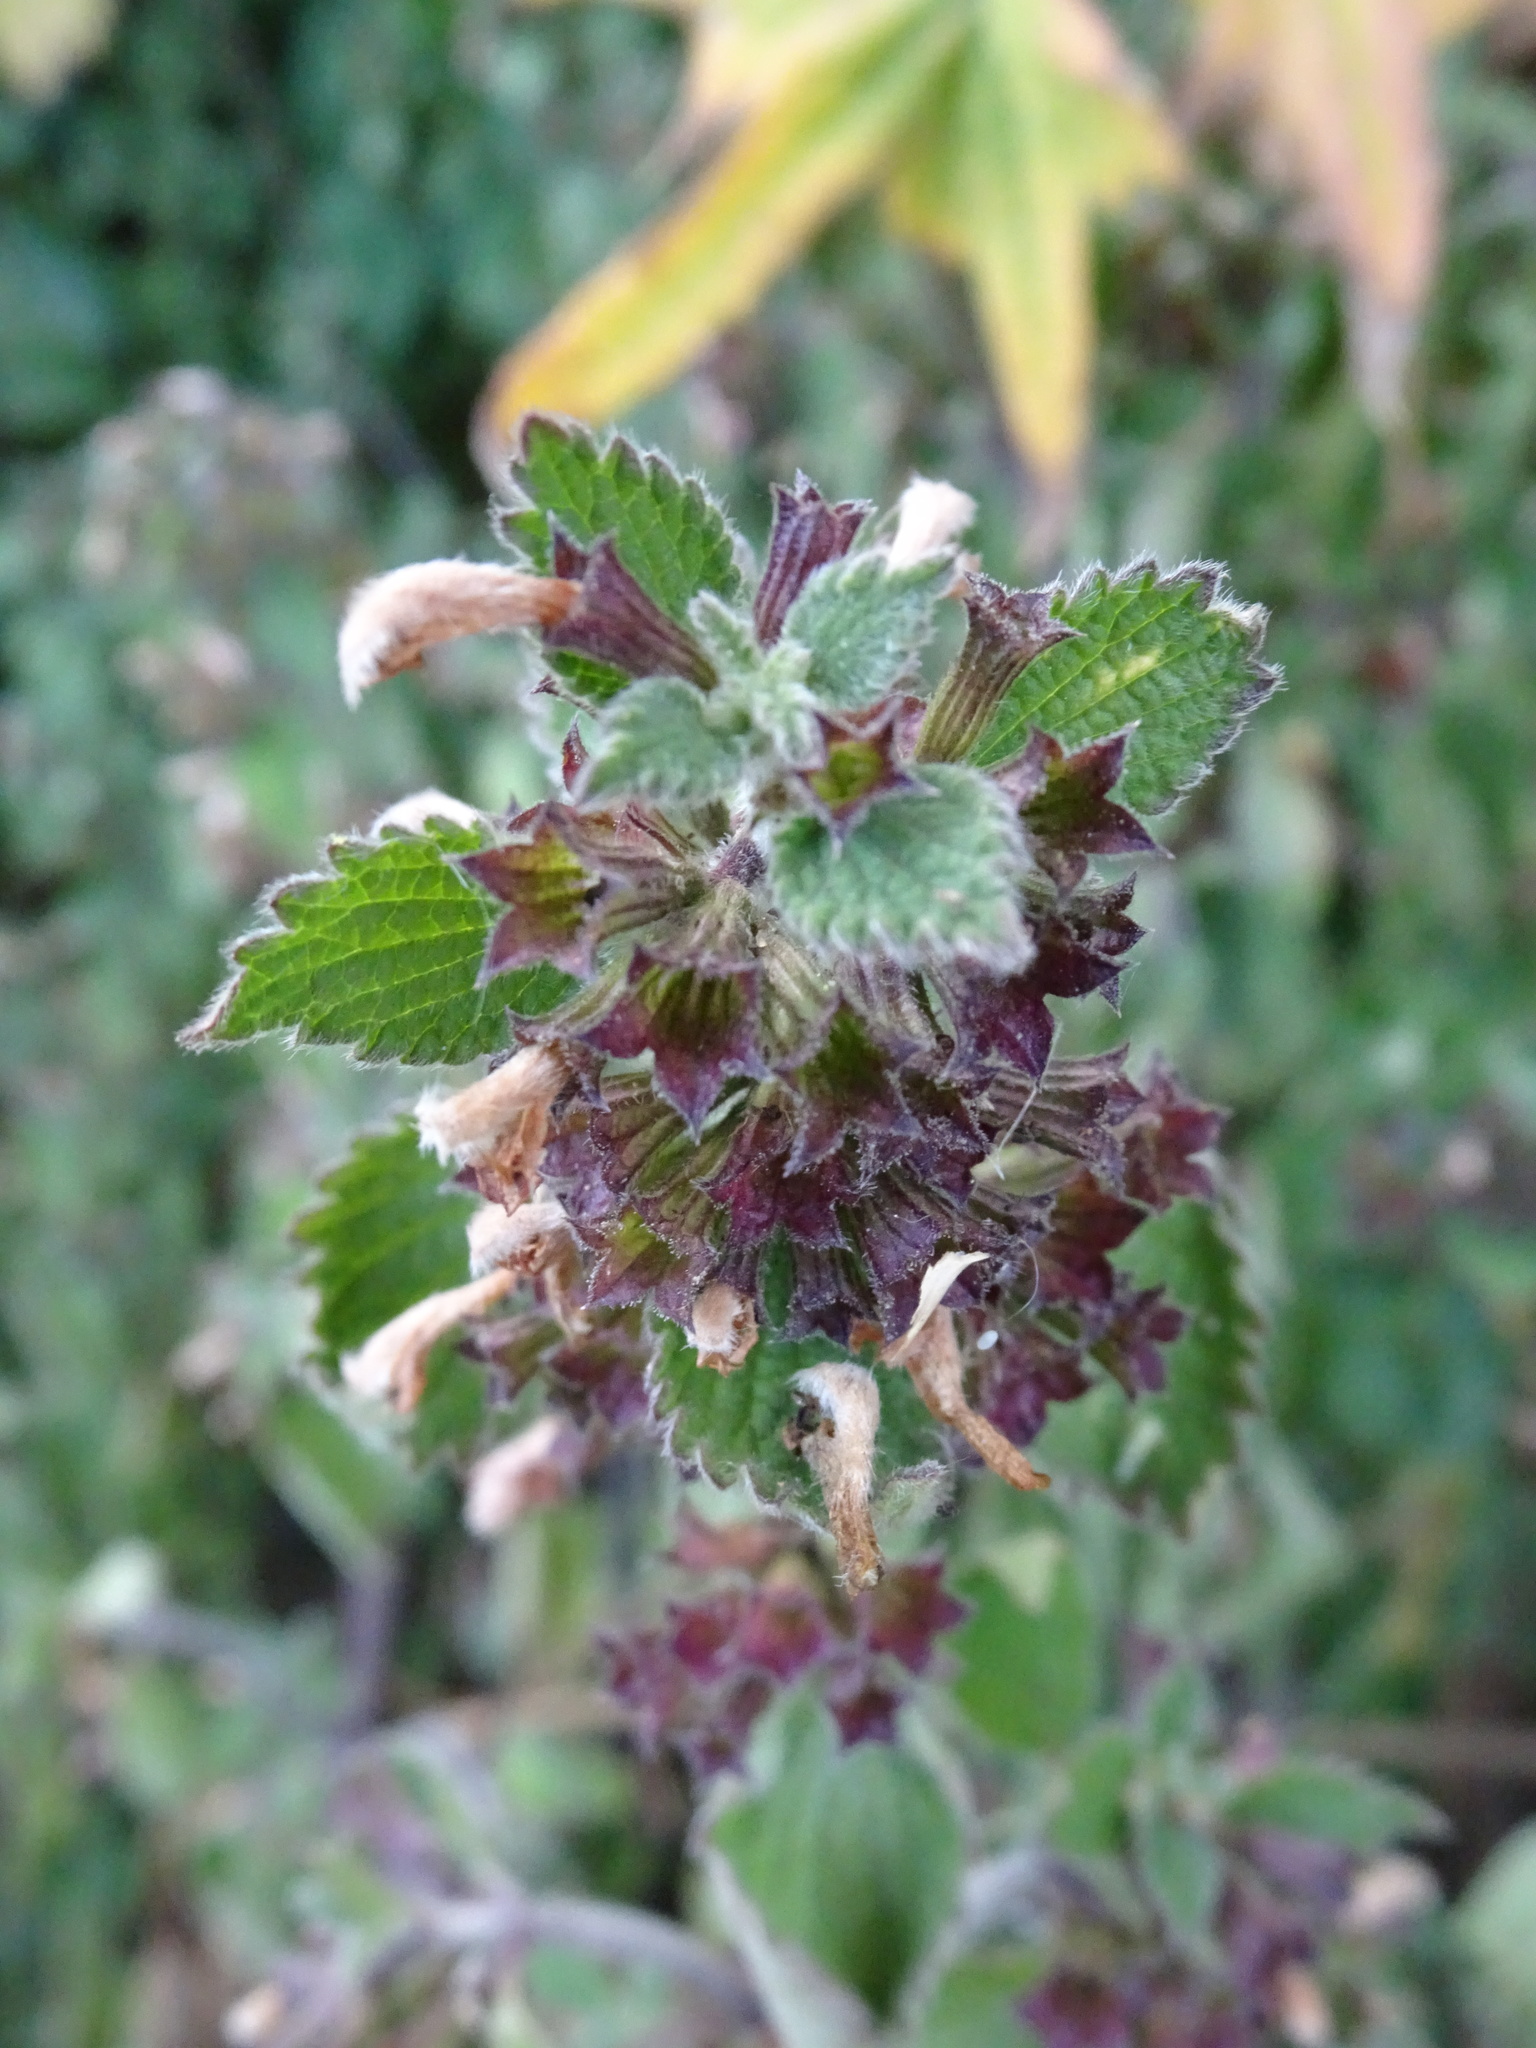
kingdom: Plantae
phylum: Tracheophyta
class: Magnoliopsida
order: Lamiales
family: Lamiaceae
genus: Ballota
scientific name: Ballota nigra
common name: Black horehound
